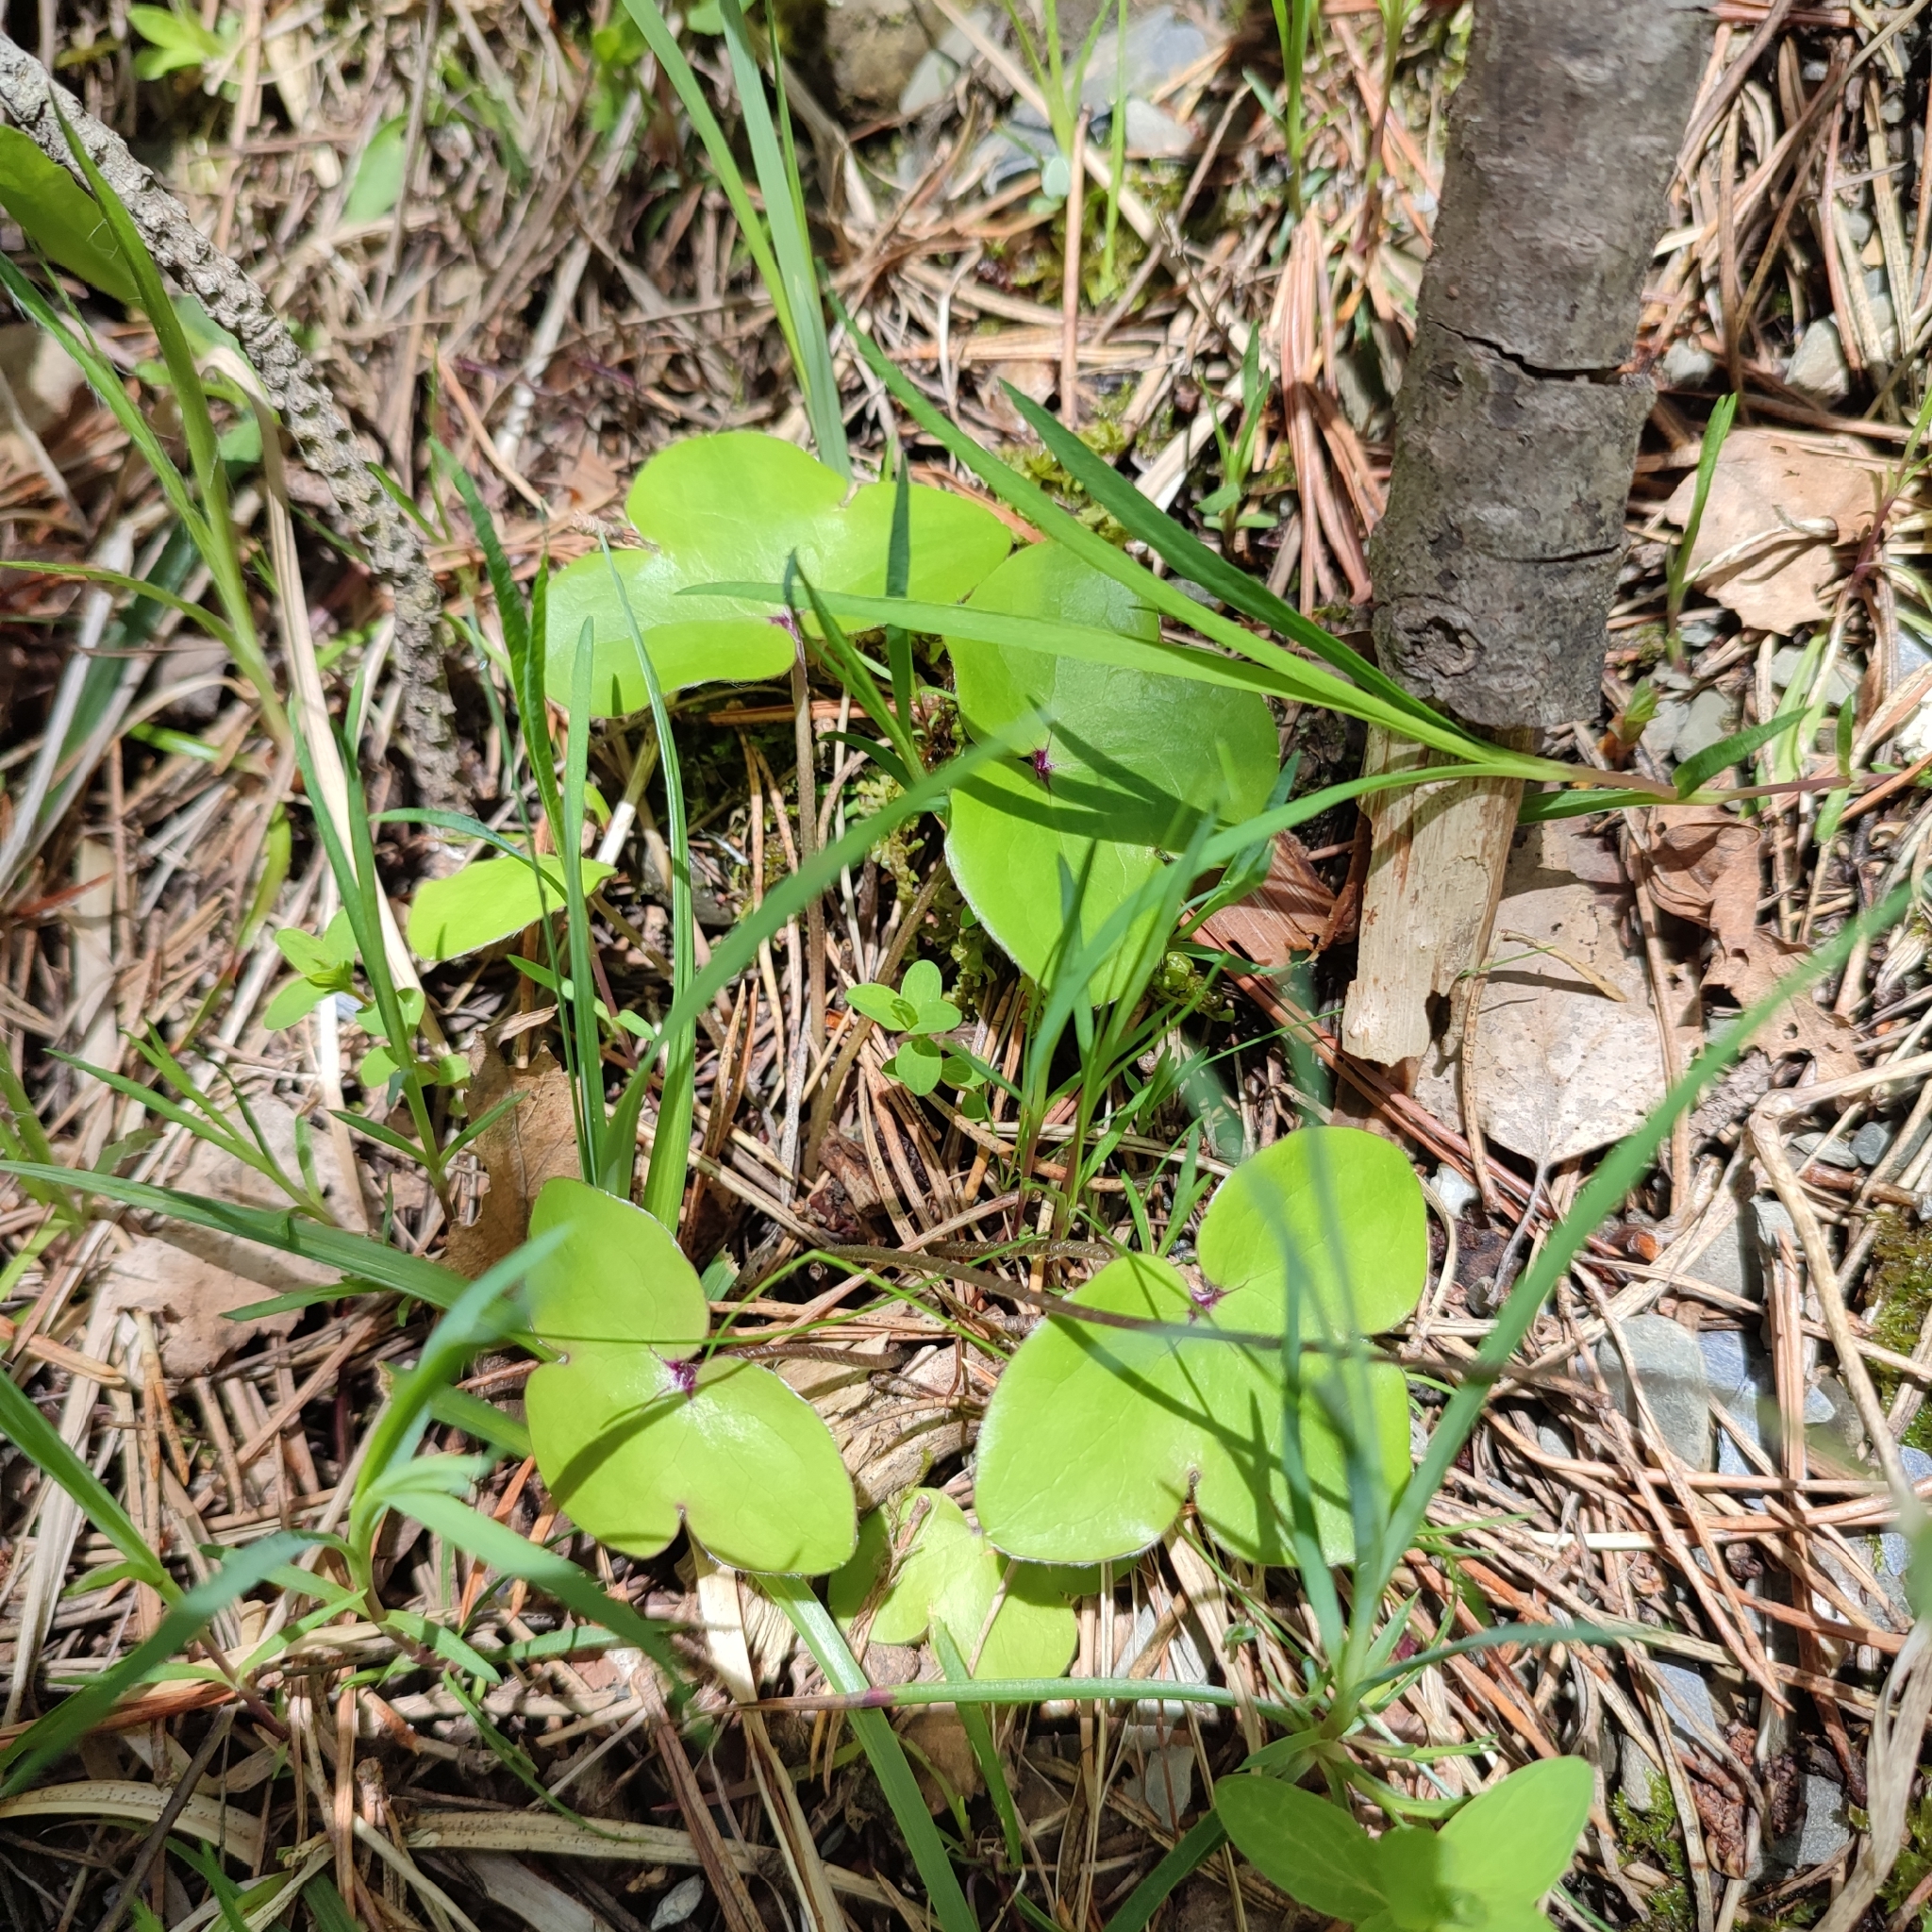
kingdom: Plantae
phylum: Tracheophyta
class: Magnoliopsida
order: Ranunculales
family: Ranunculaceae
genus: Hepatica
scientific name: Hepatica nobilis
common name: Liverleaf
